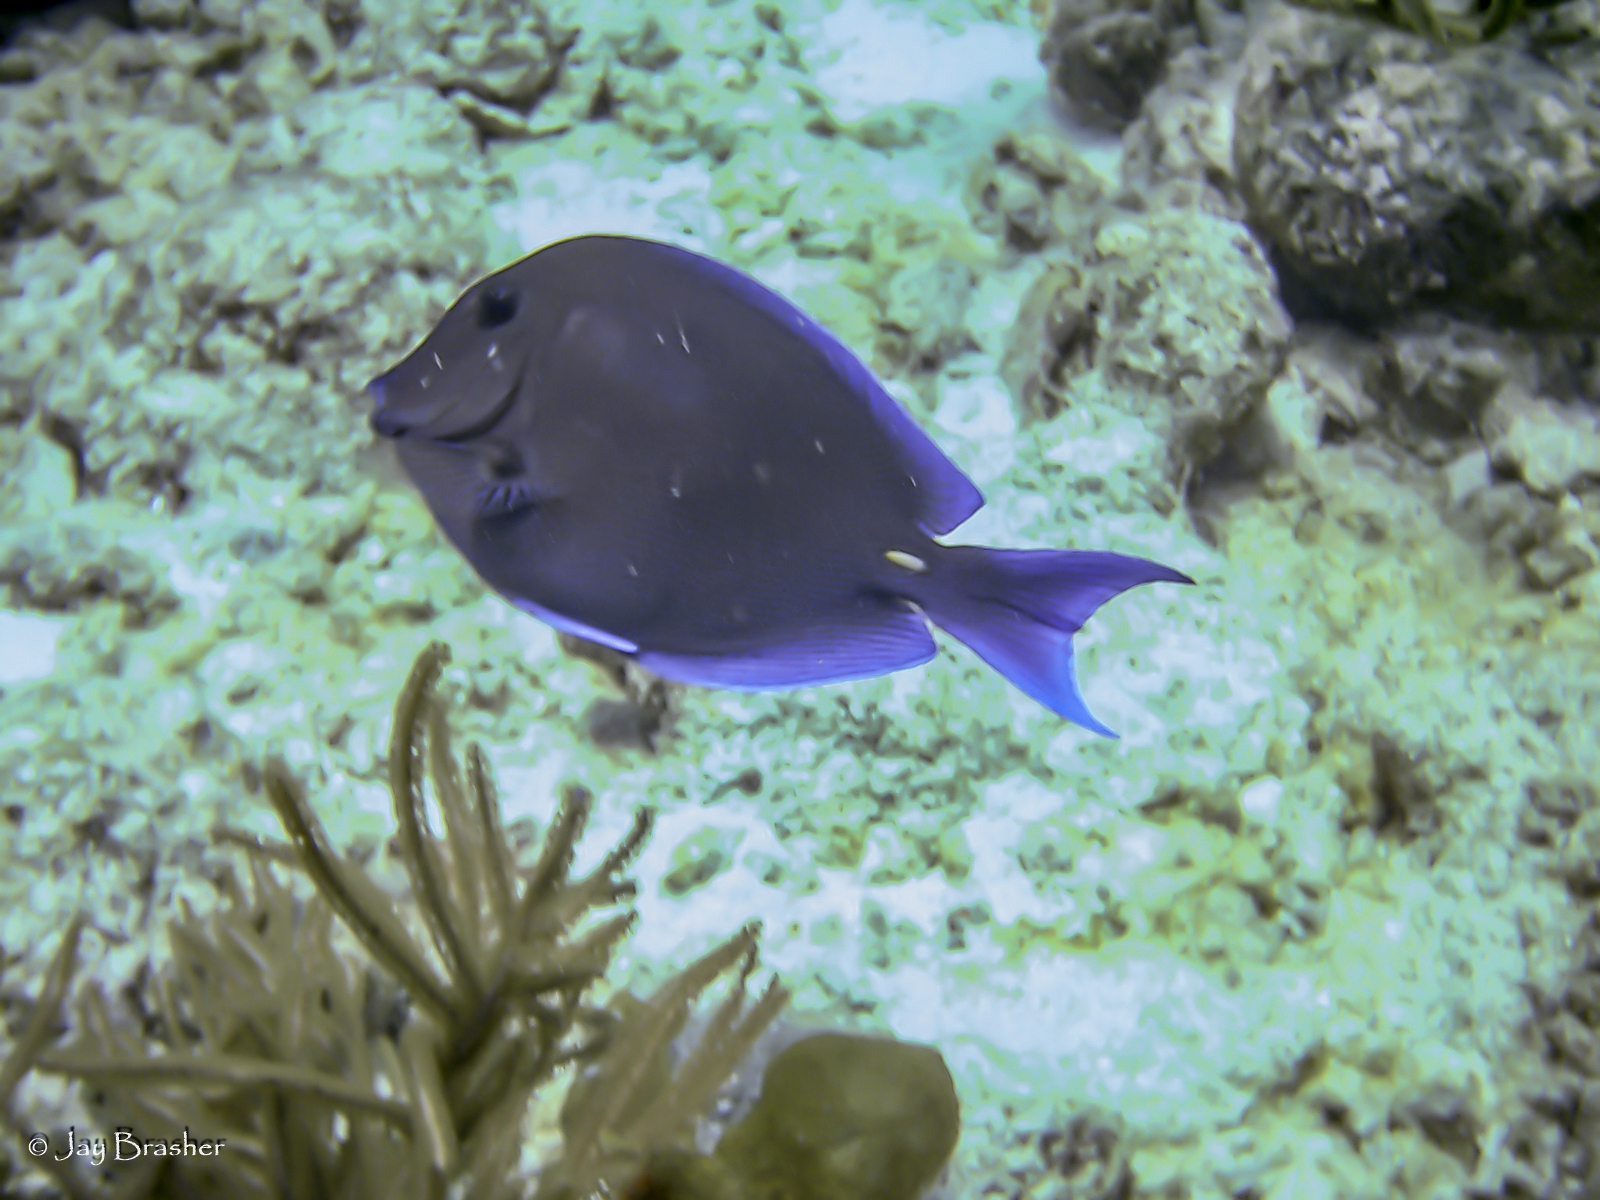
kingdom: Animalia
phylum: Chordata
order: Perciformes
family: Acanthuridae
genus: Acanthurus
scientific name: Acanthurus coeruleus
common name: Blue tang
